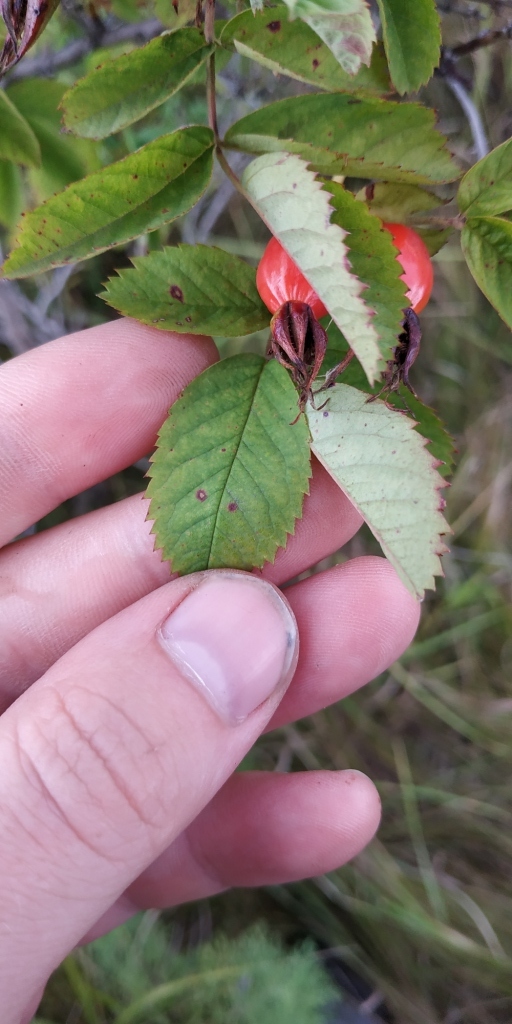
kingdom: Plantae
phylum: Tracheophyta
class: Magnoliopsida
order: Rosales
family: Rosaceae
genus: Rosa
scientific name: Rosa
